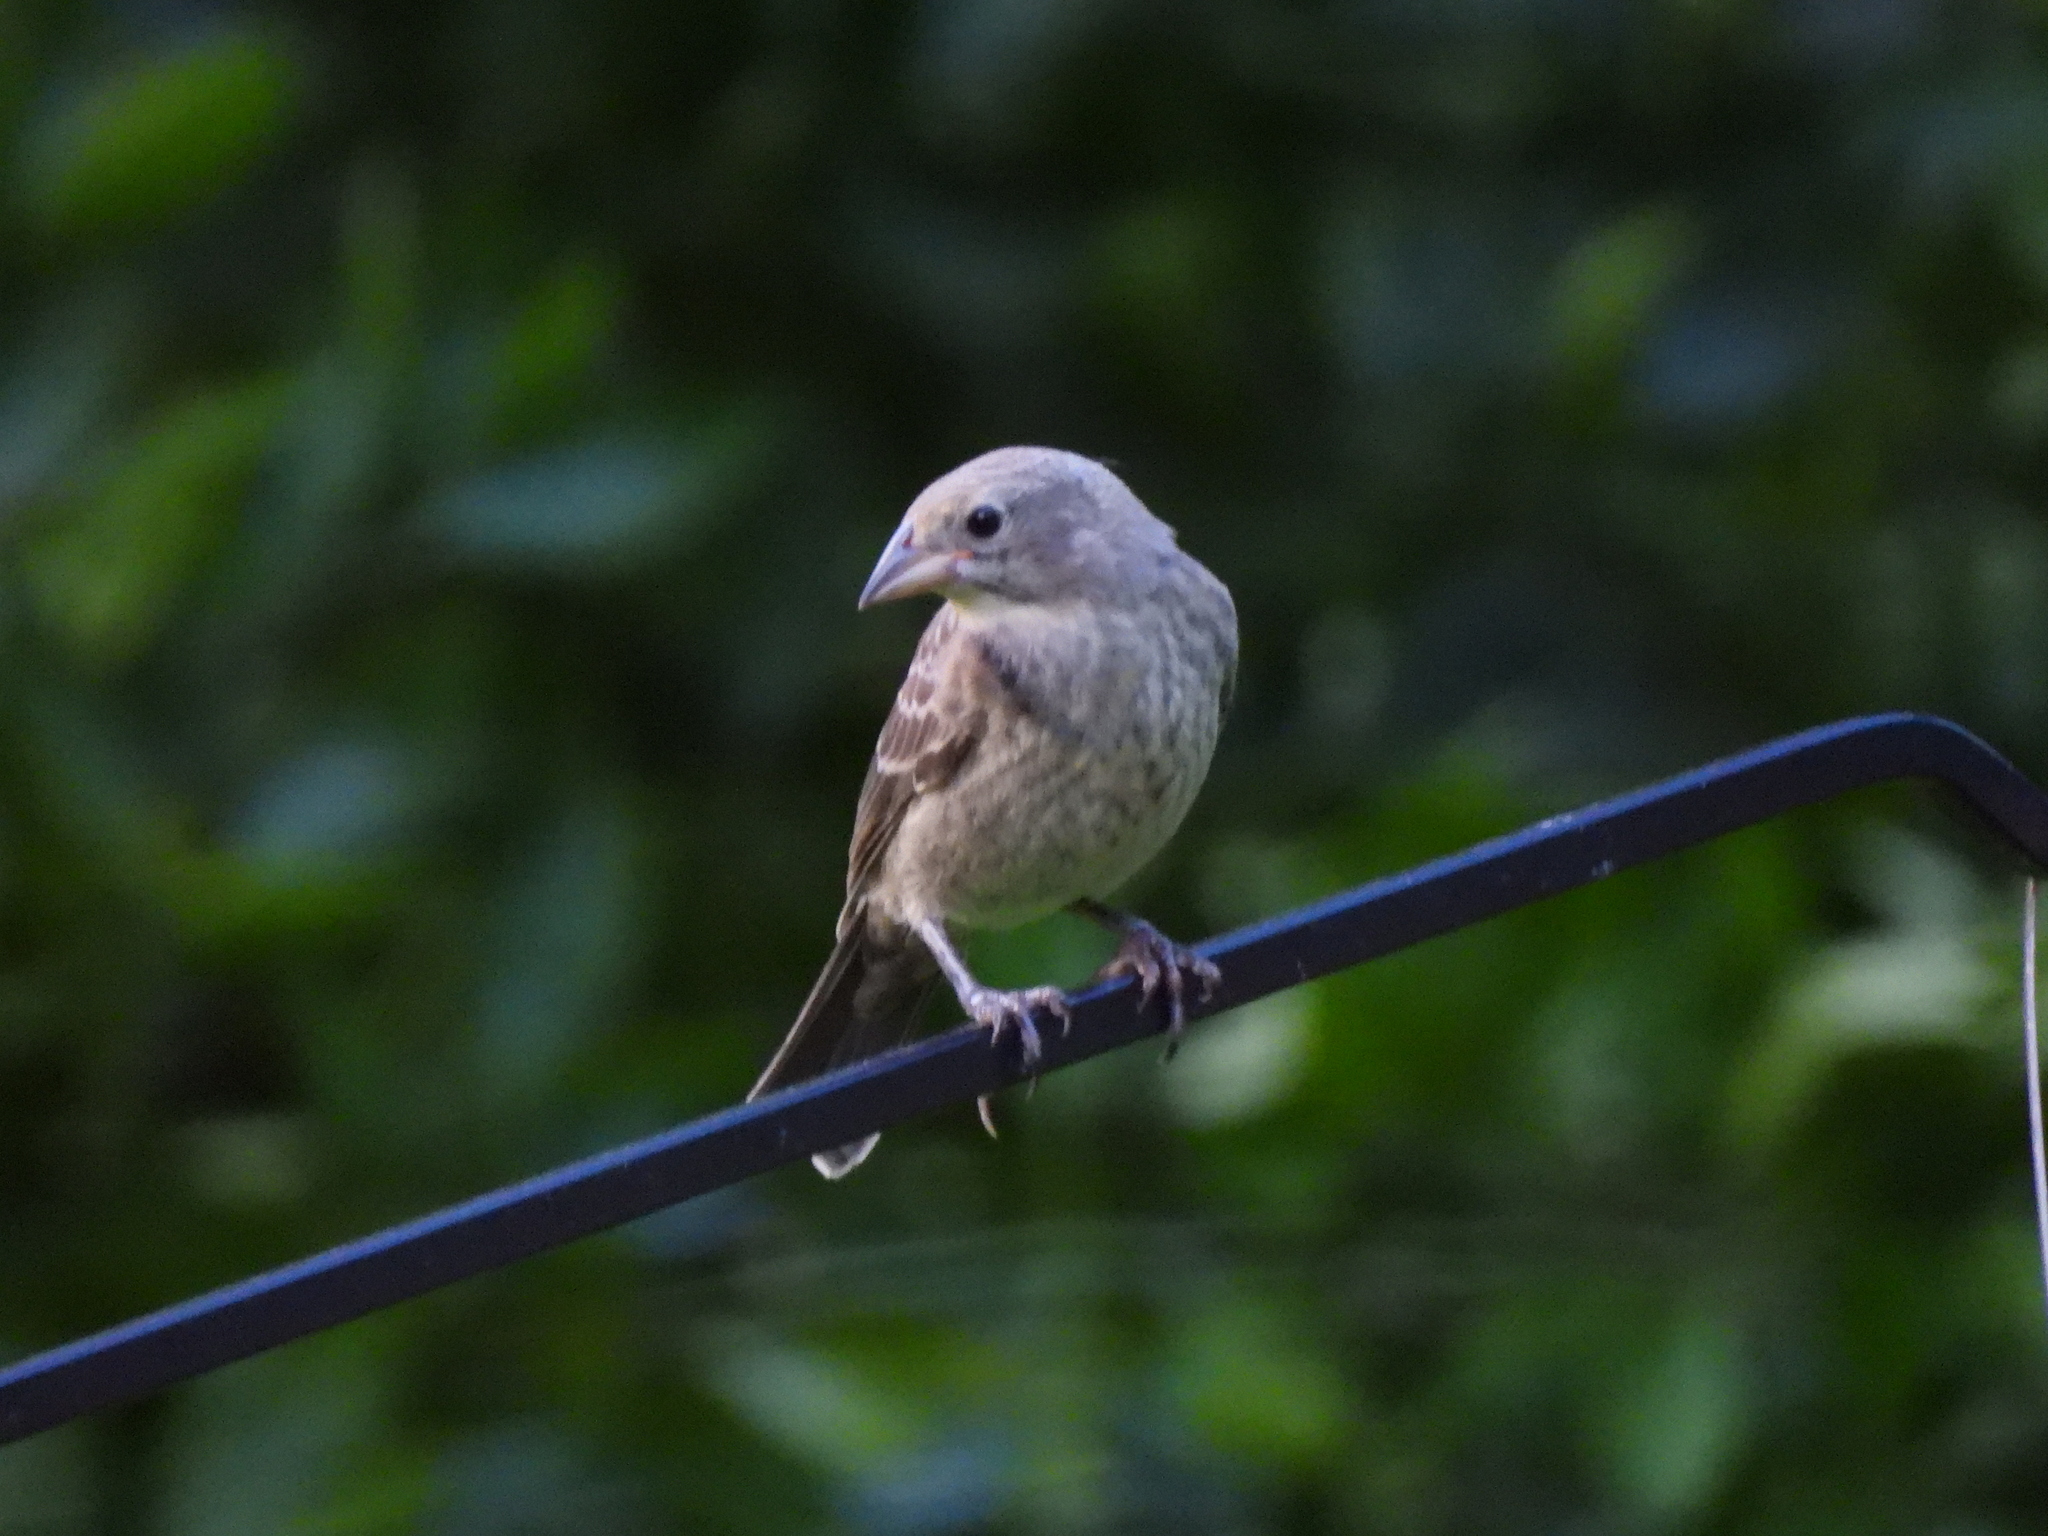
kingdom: Animalia
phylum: Chordata
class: Aves
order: Passeriformes
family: Icteridae
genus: Molothrus
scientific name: Molothrus ater
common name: Brown-headed cowbird
